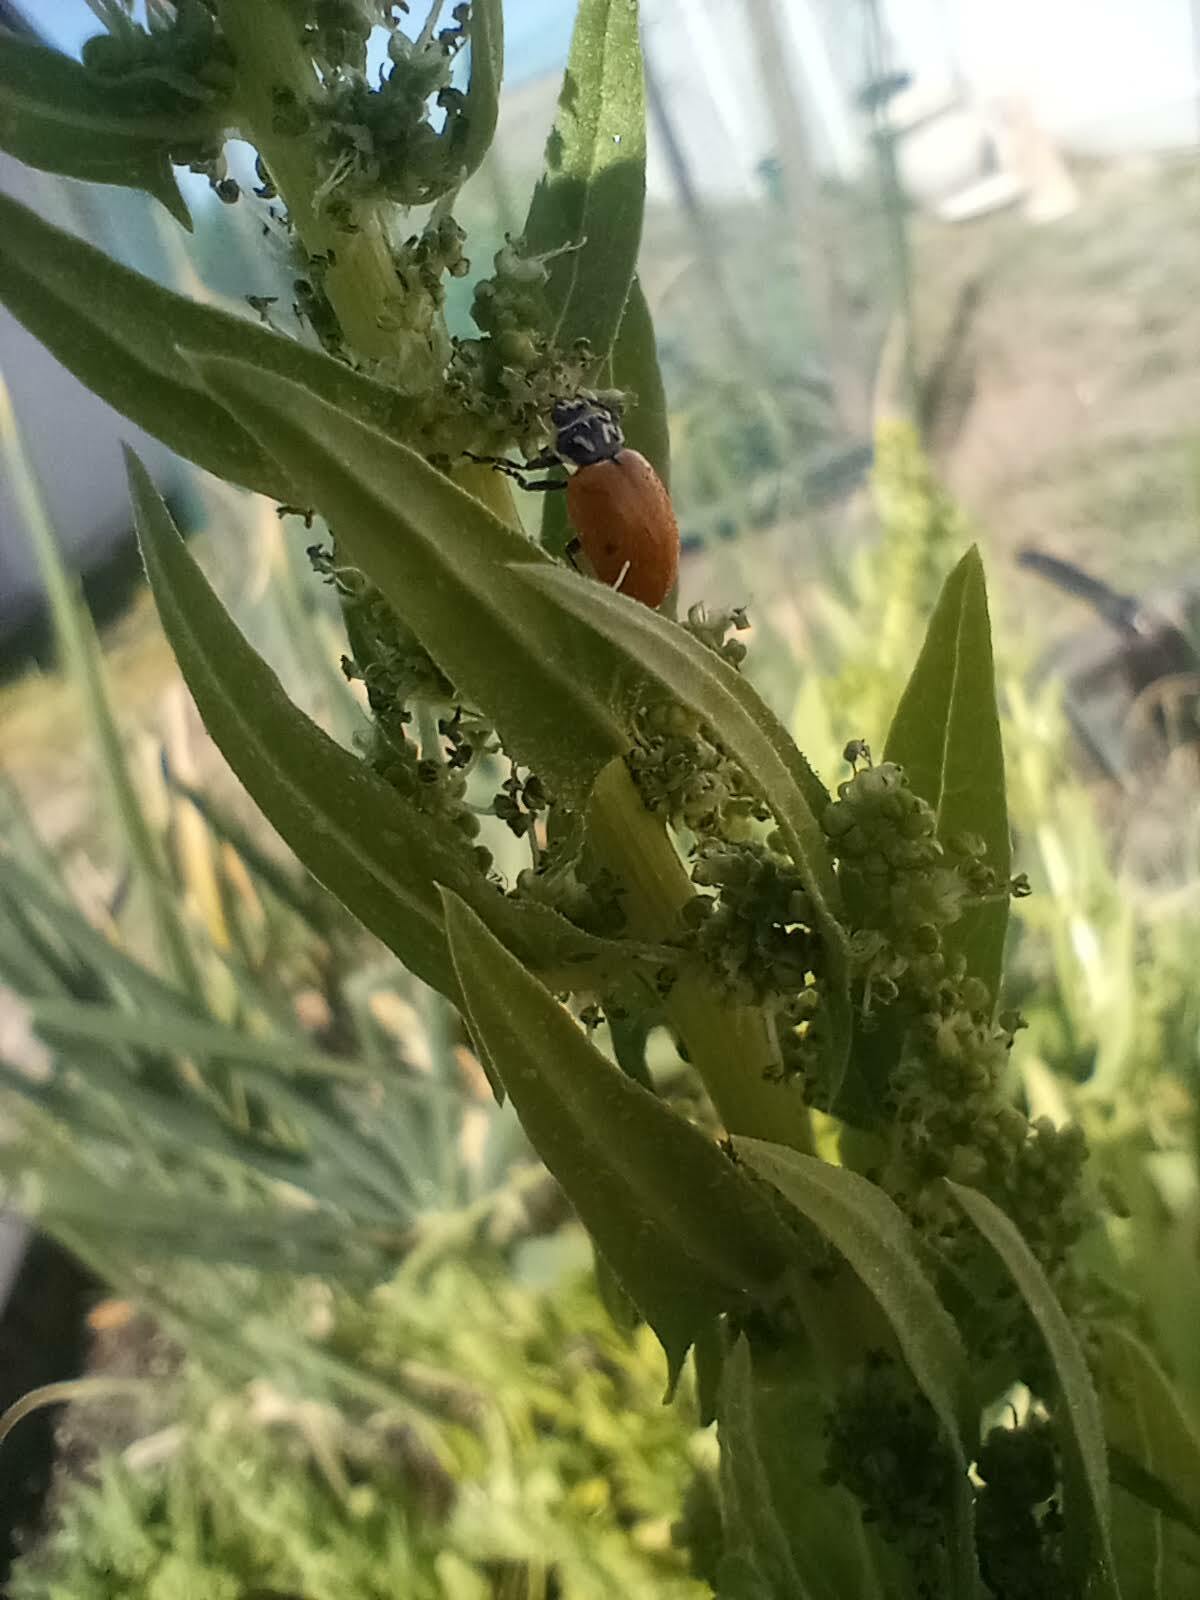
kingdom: Animalia
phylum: Arthropoda
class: Insecta
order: Coleoptera
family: Coccinellidae
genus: Hippodamia
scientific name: Hippodamia convergens
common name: Convergent lady beetle
